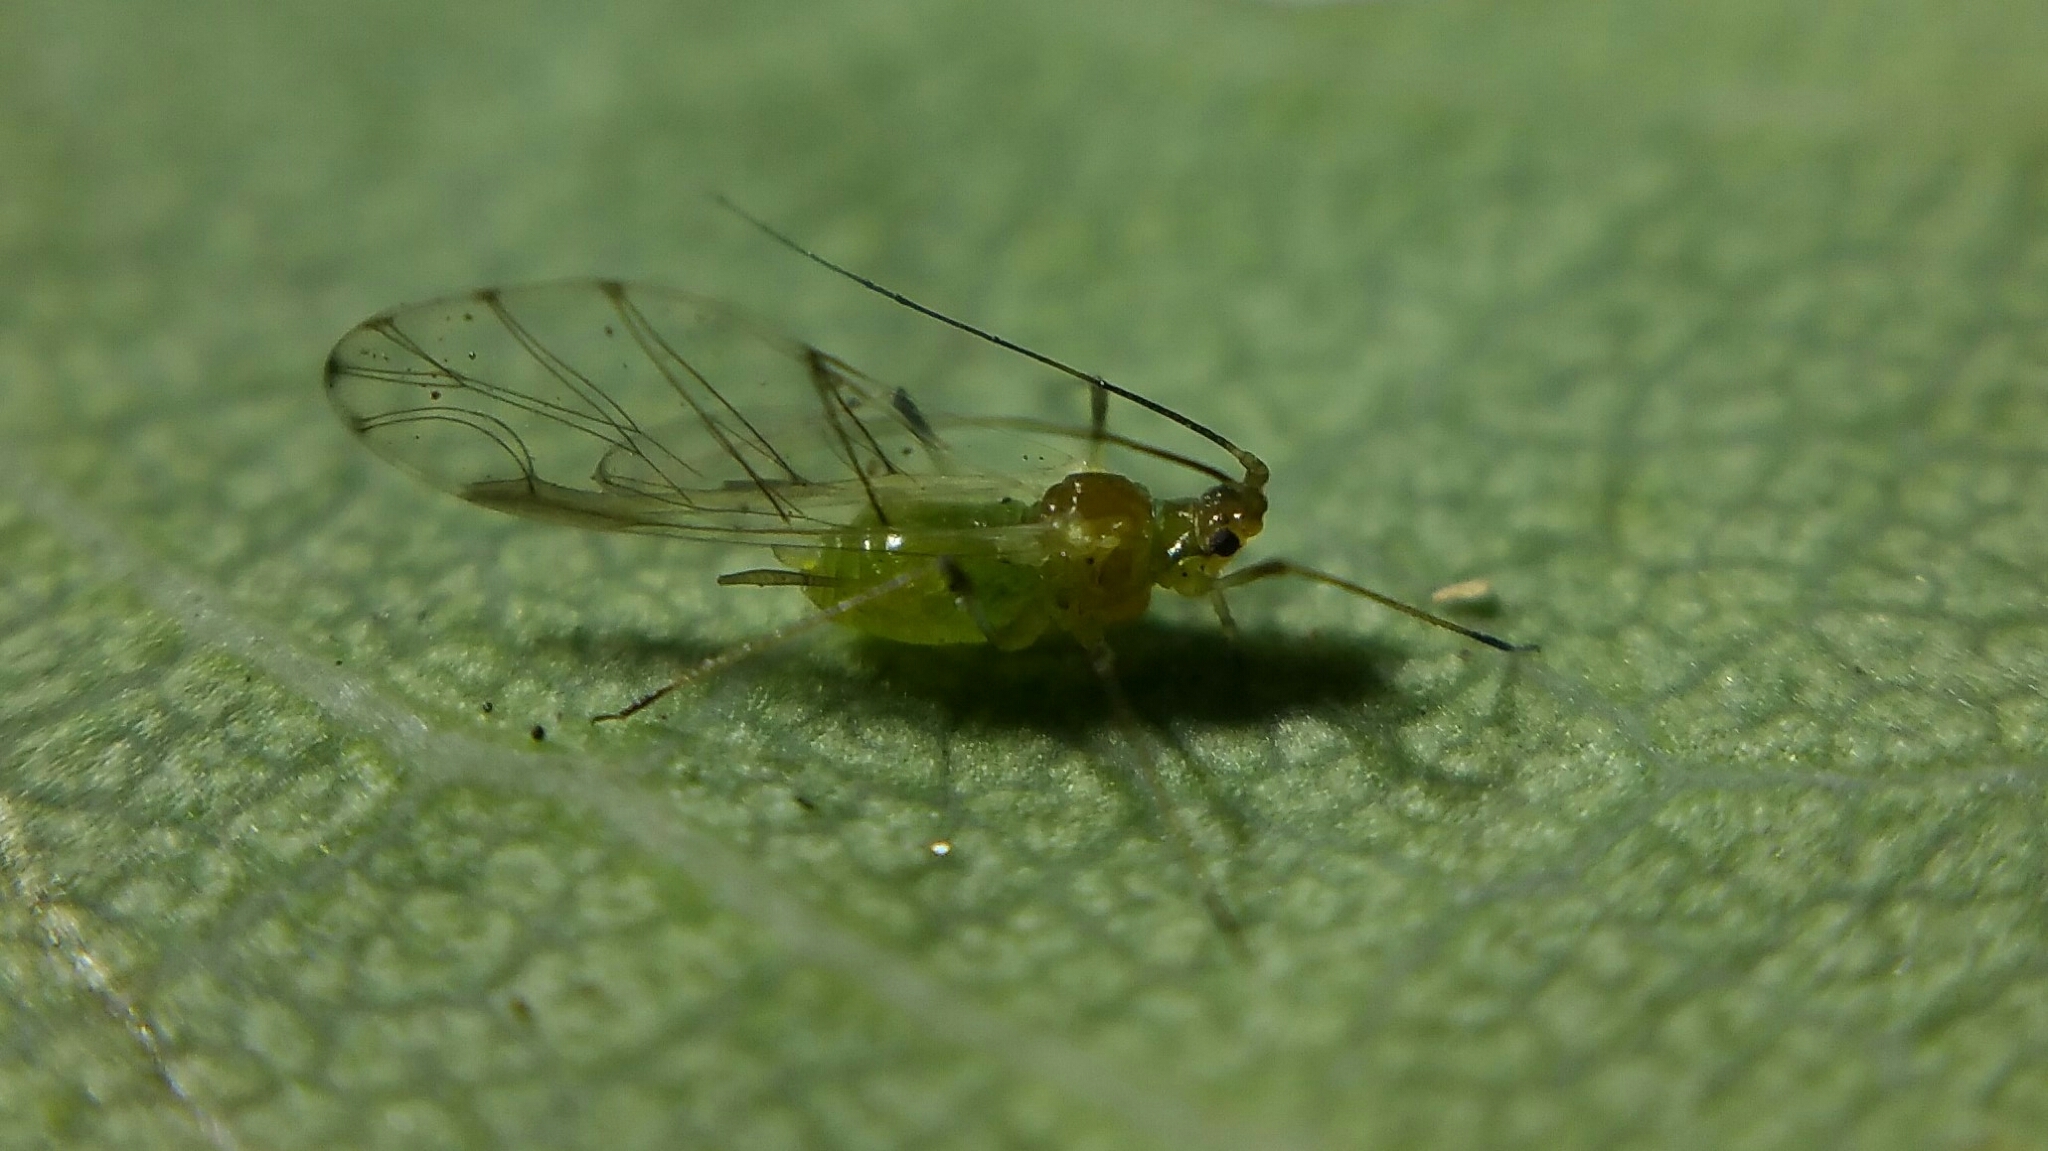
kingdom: Animalia
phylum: Arthropoda
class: Insecta
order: Hemiptera
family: Aphididae
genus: Wahlgreniella
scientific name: Wahlgreniella nervata
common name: Pale green aphid
